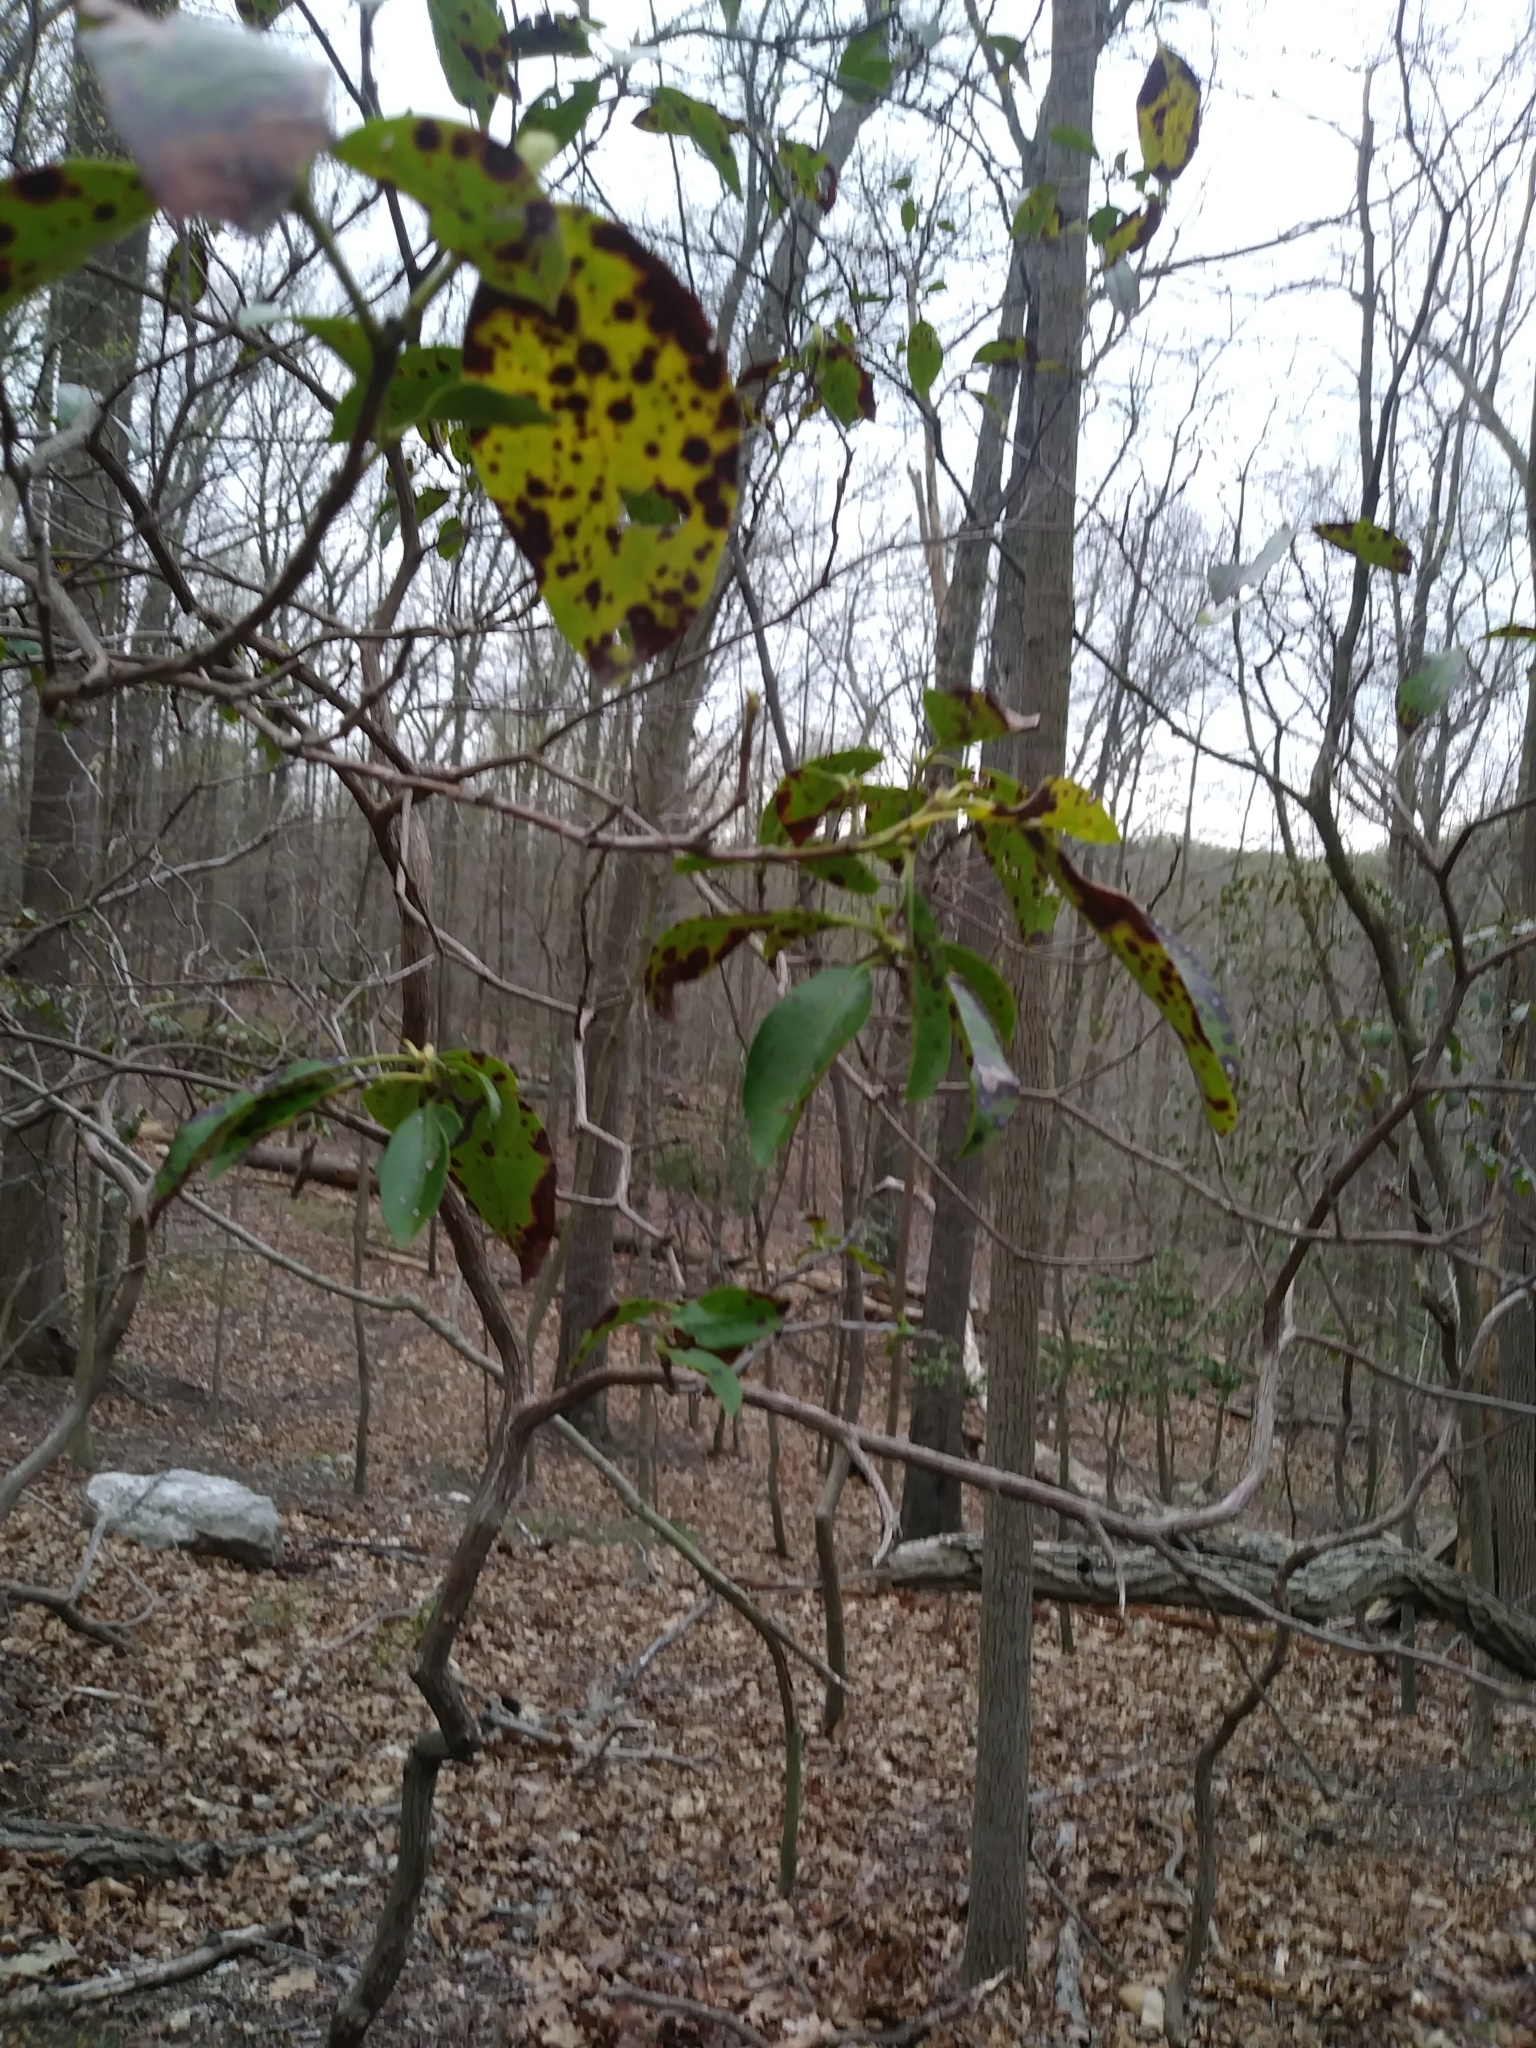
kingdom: Plantae
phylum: Tracheophyta
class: Magnoliopsida
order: Ericales
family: Ericaceae
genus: Kalmia
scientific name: Kalmia latifolia
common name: Mountain-laurel
